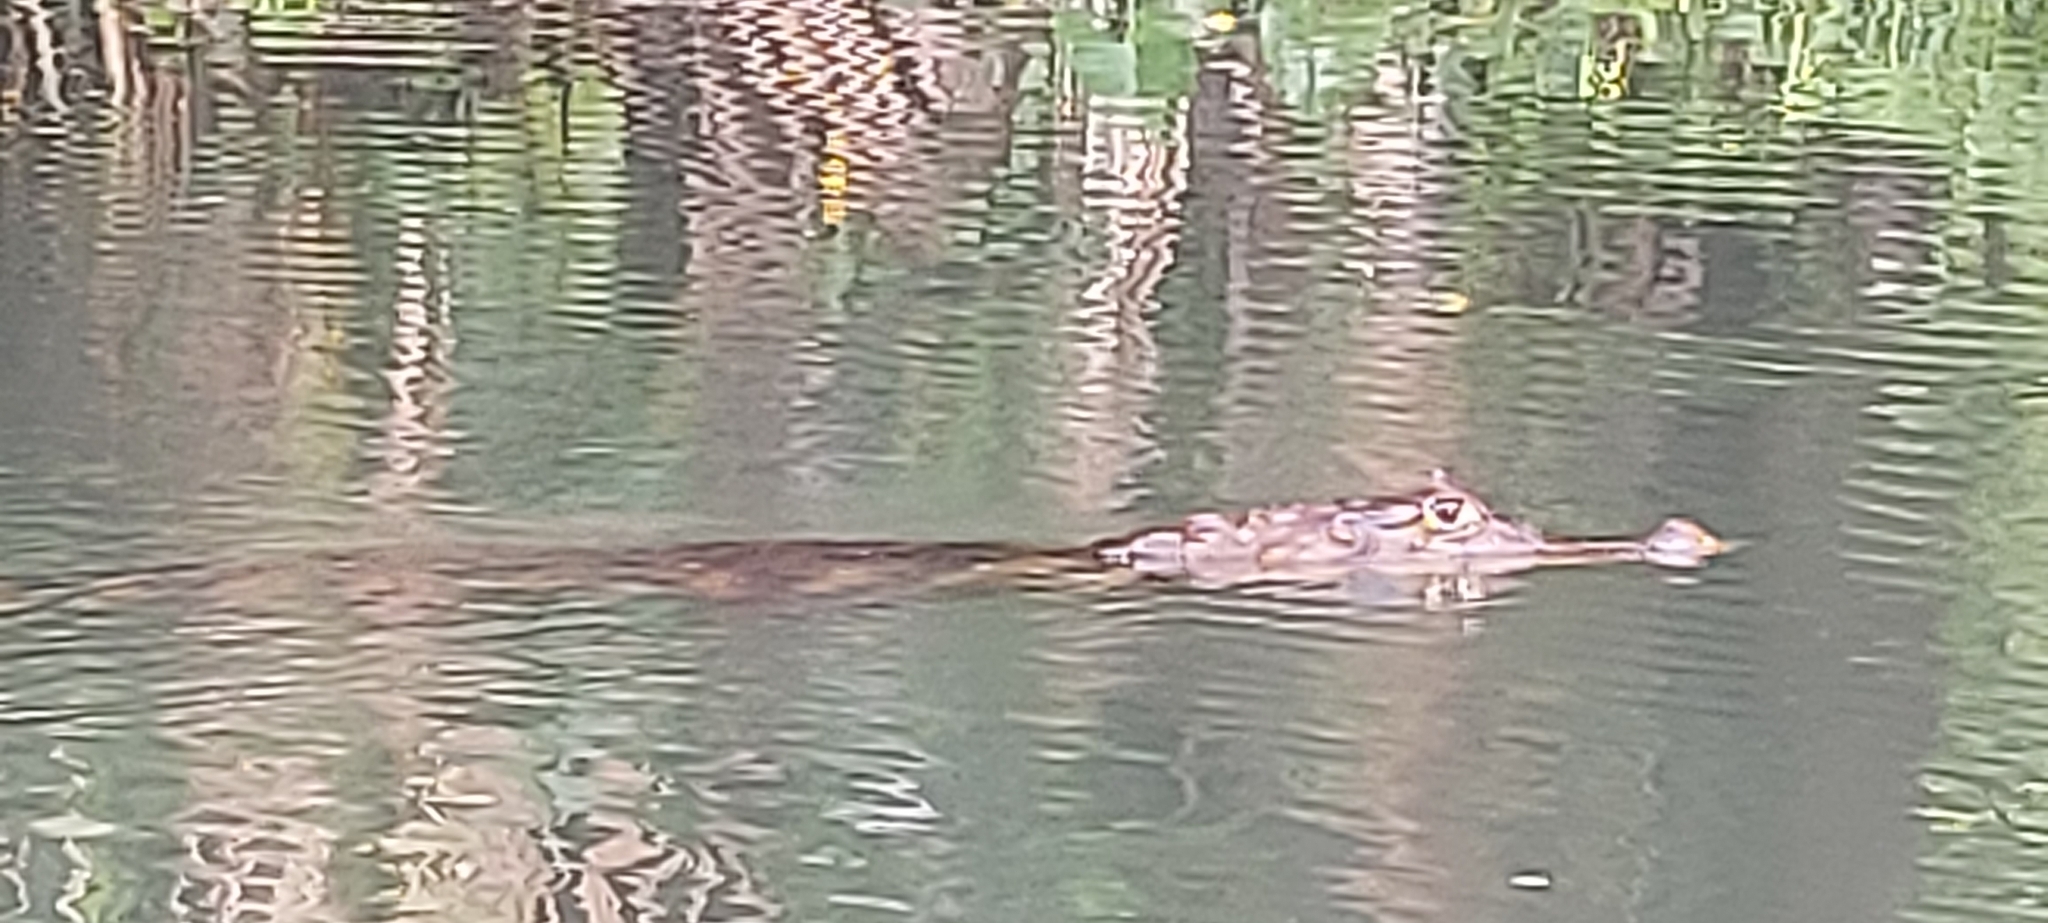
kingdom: Animalia
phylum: Chordata
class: Crocodylia
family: Alligatoridae
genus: Caiman
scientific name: Caiman crocodilus
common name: Common caiman
